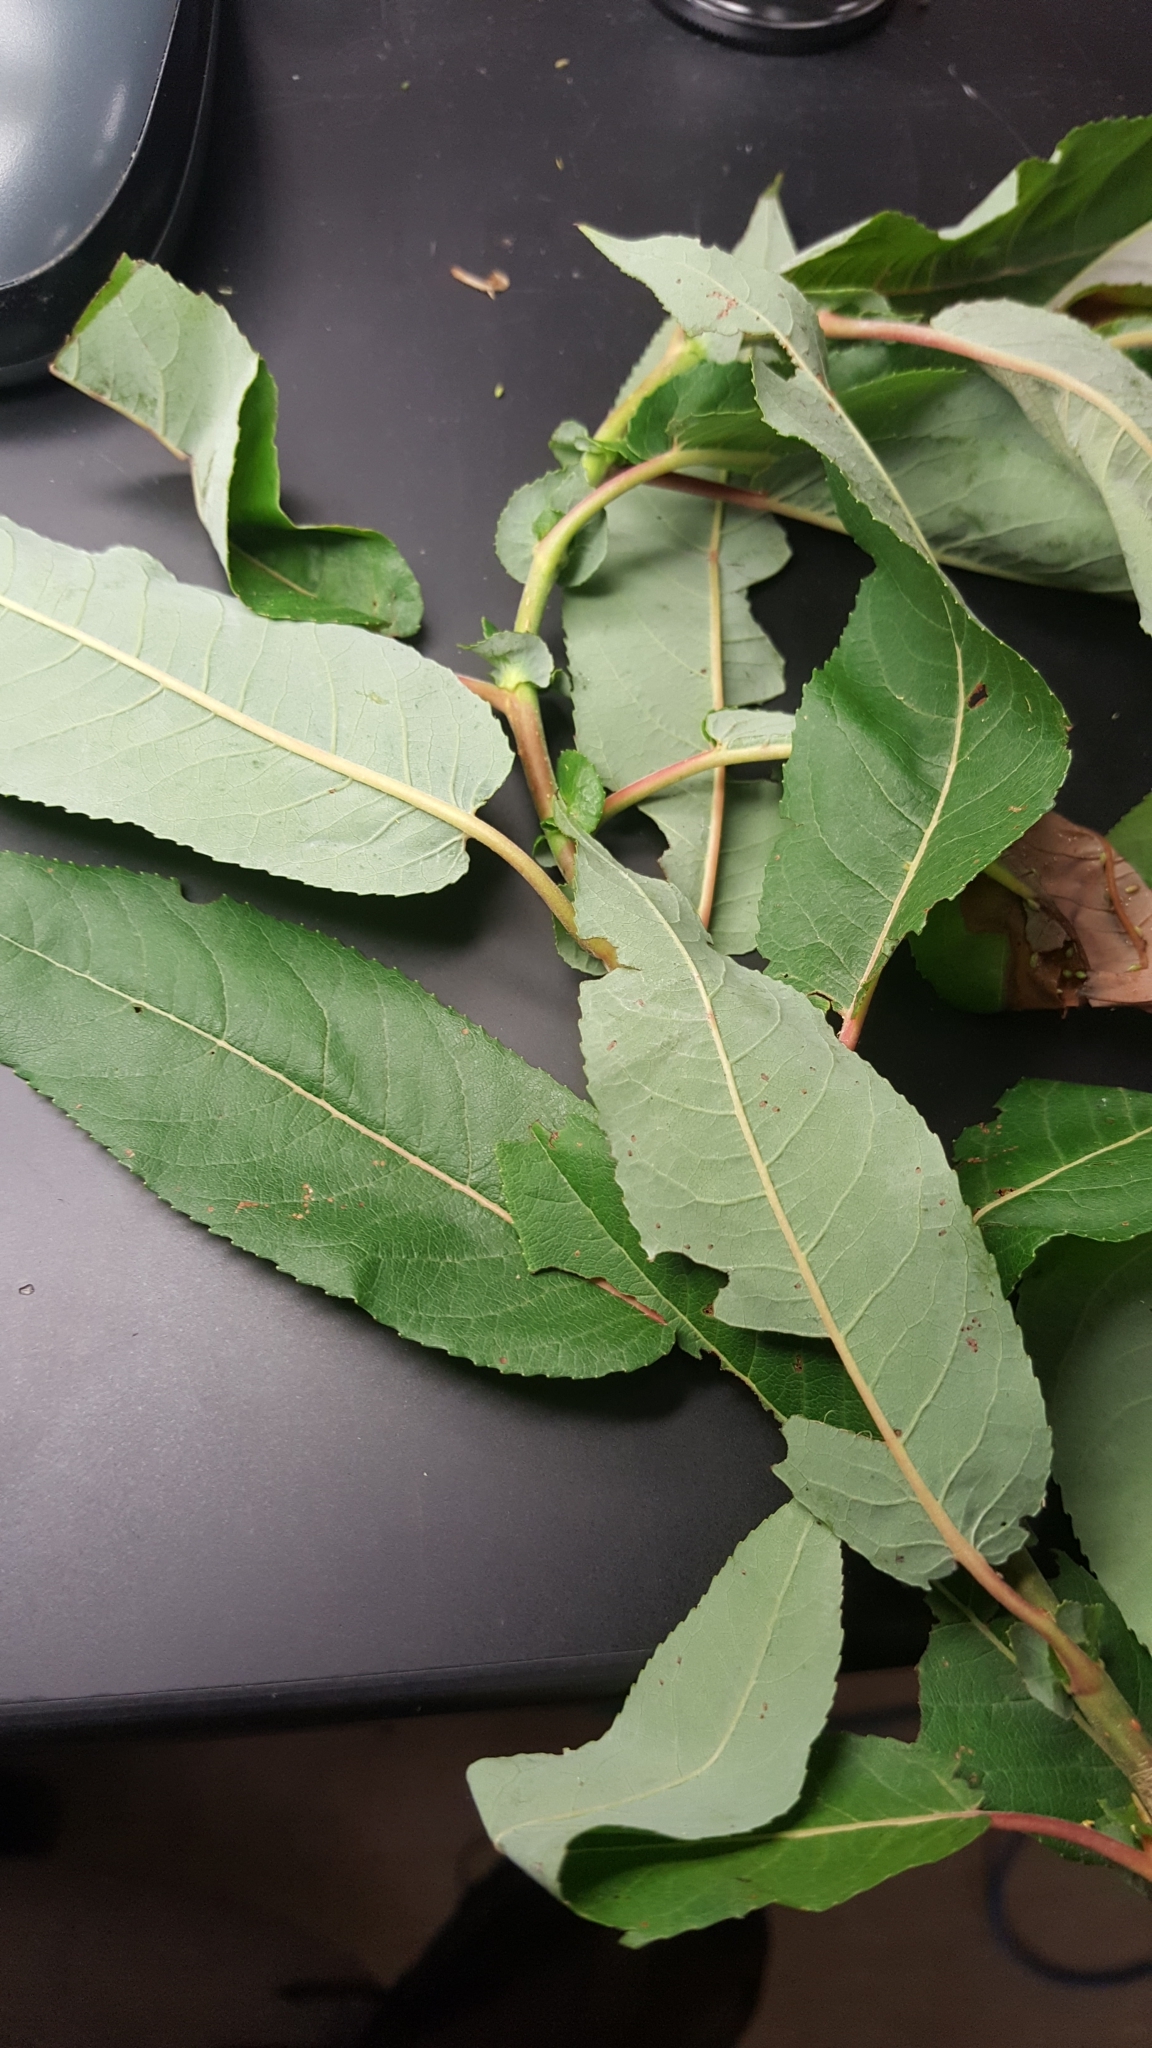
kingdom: Plantae
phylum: Tracheophyta
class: Magnoliopsida
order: Malpighiales
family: Salicaceae
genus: Salix
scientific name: Salix eriocephala
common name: Heart-leaved willow
